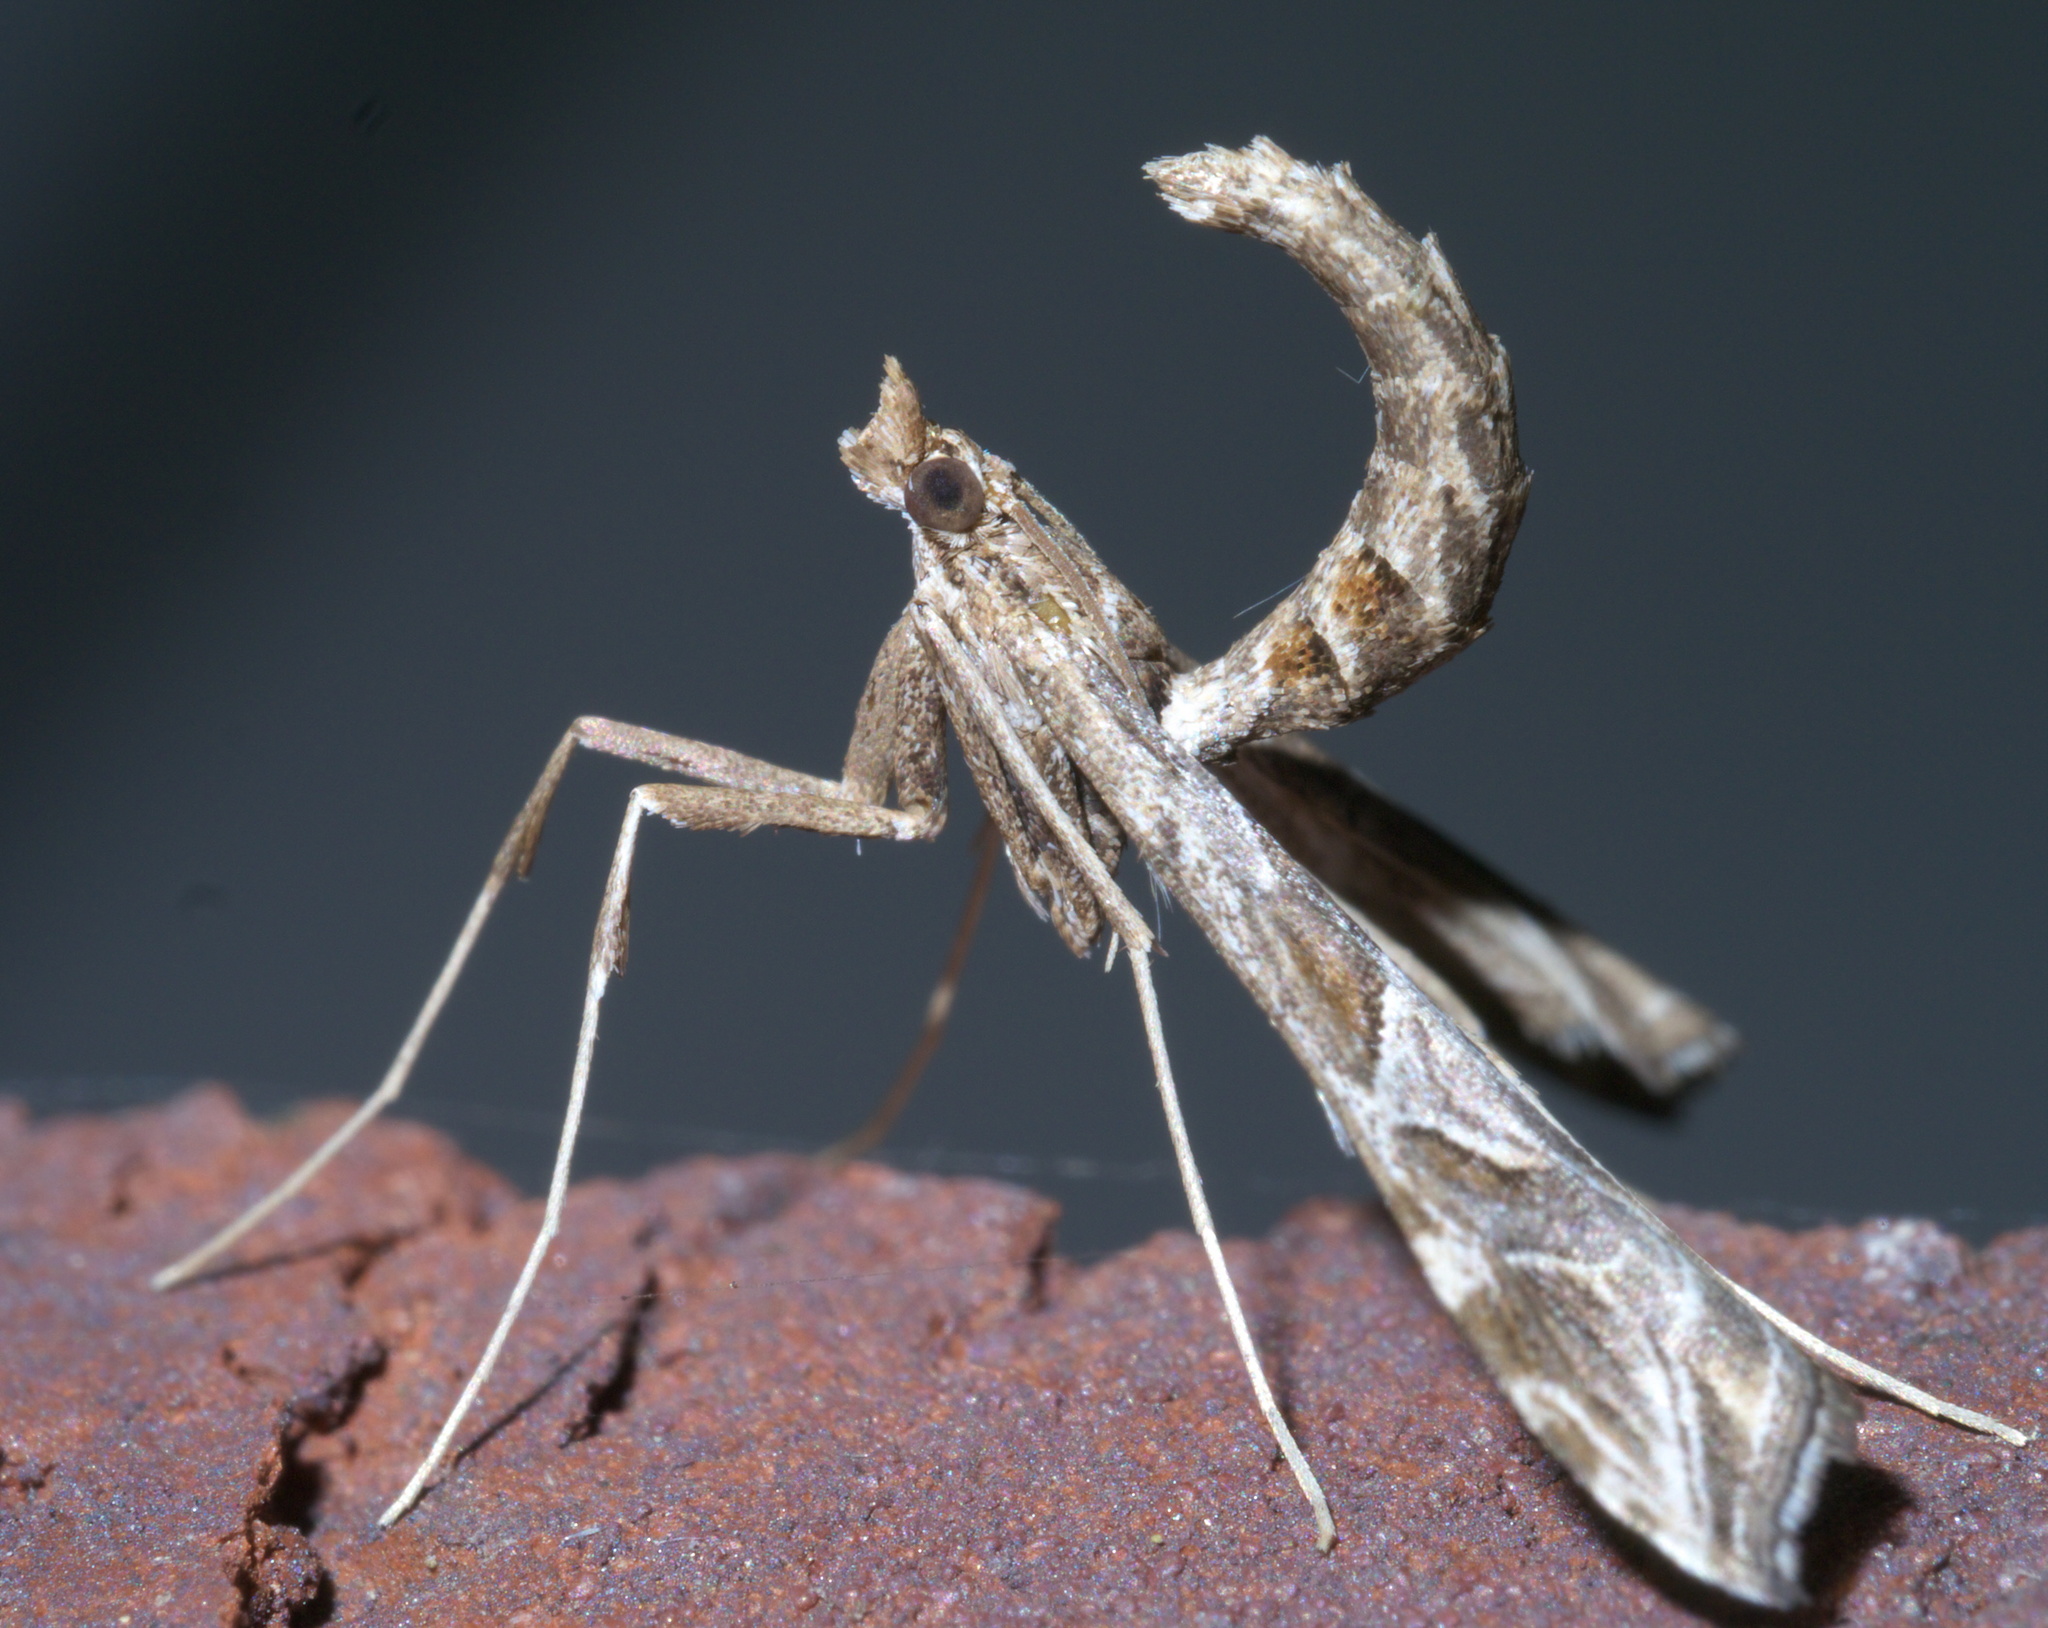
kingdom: Animalia
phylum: Arthropoda
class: Insecta
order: Lepidoptera
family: Crambidae
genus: Lineodes
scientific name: Lineodes interrupta
